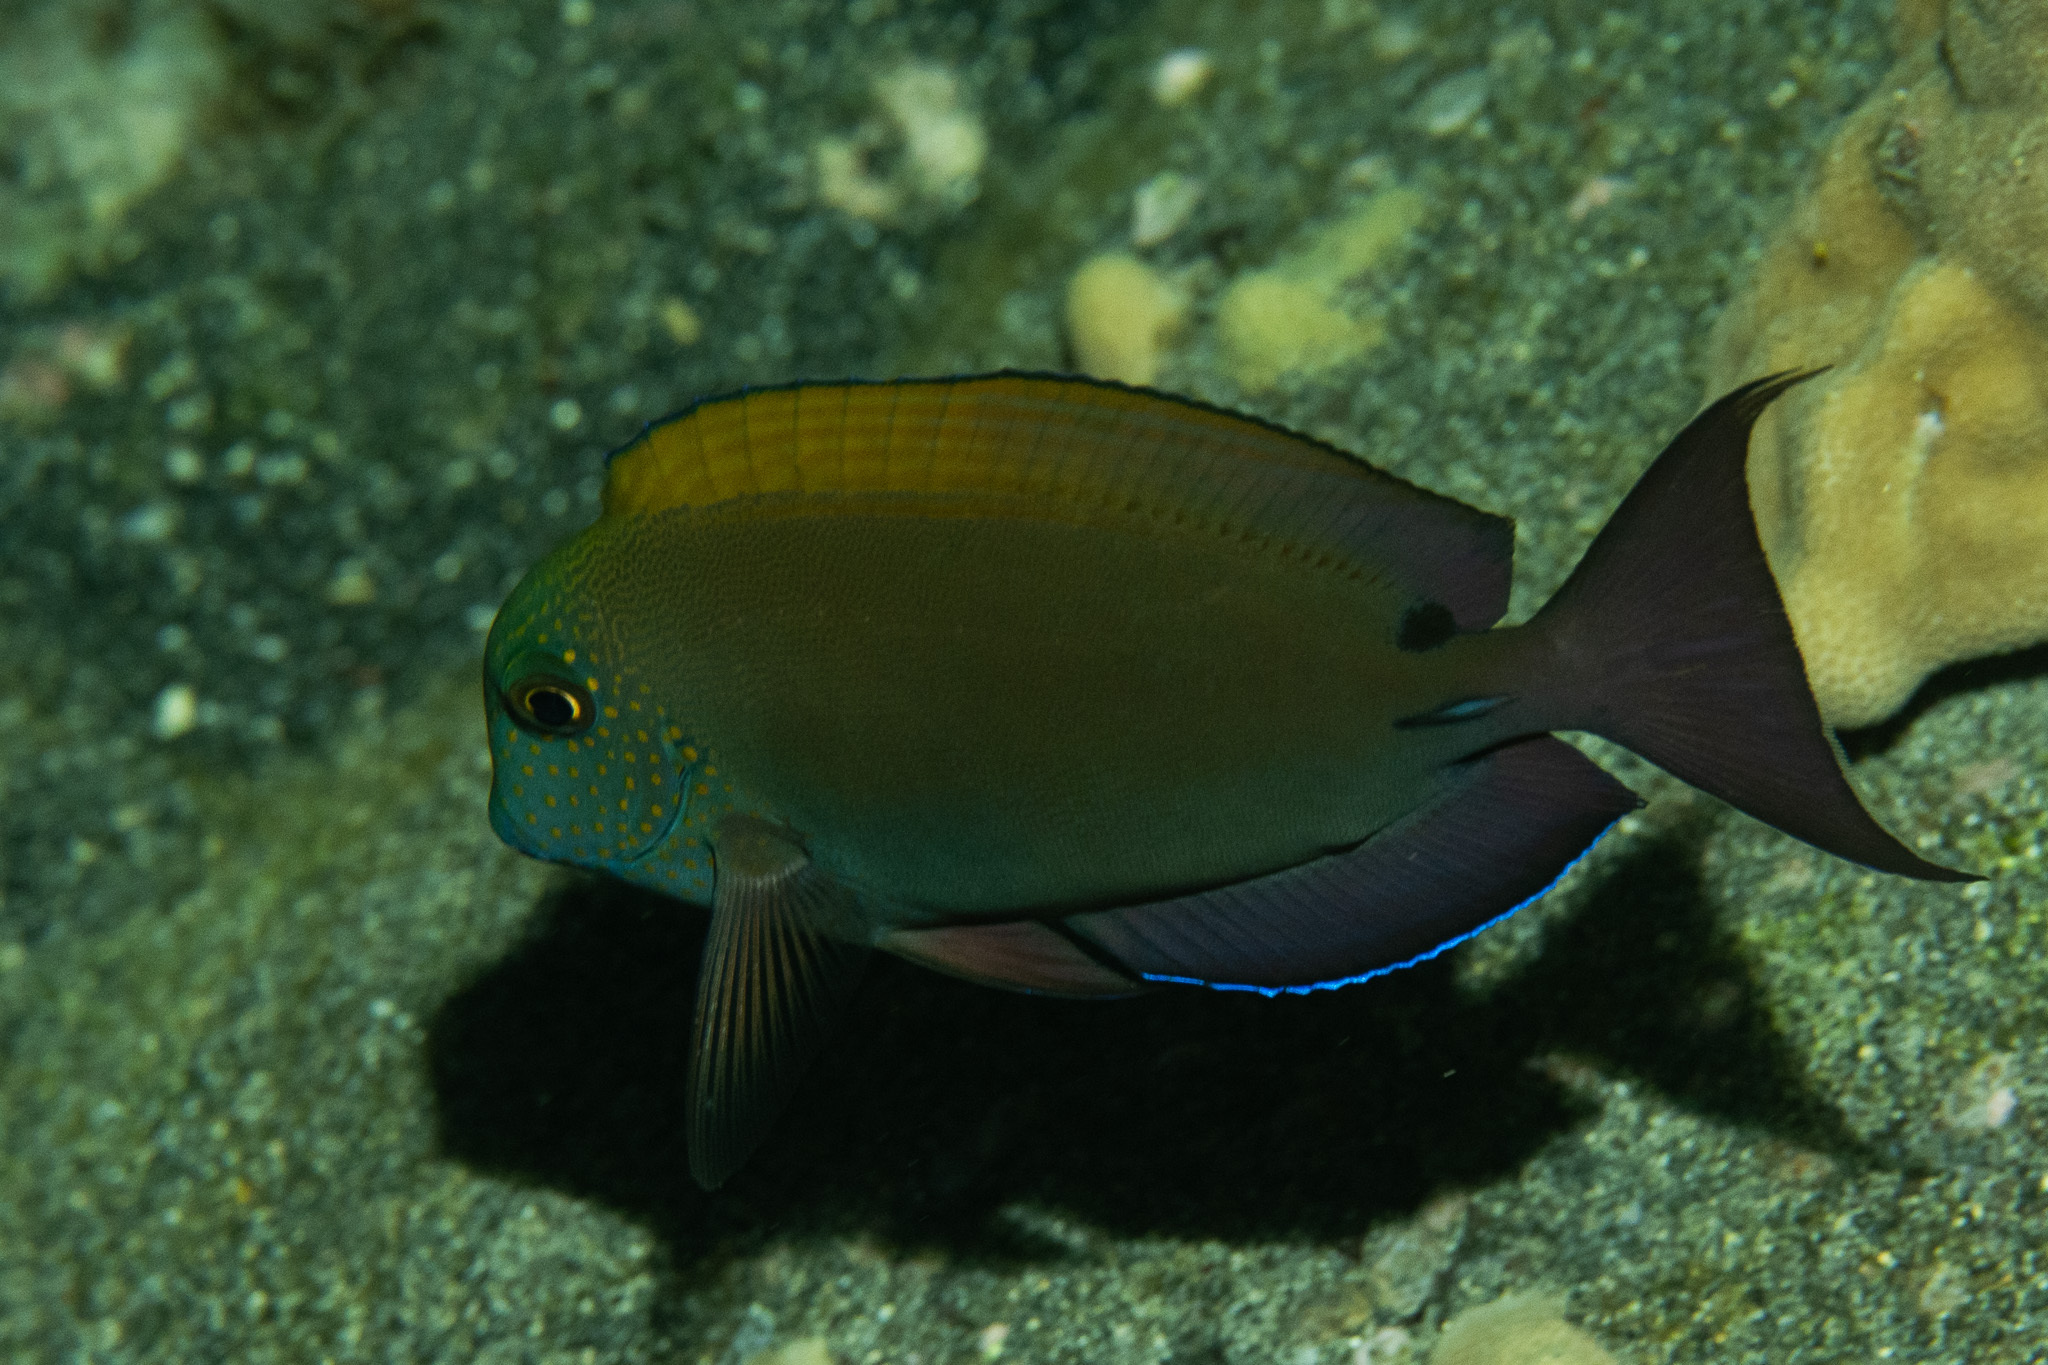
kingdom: Animalia
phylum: Chordata
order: Perciformes
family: Acanthuridae
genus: Acanthurus
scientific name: Acanthurus nigrofuscus
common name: Blackspot surgeonfish
